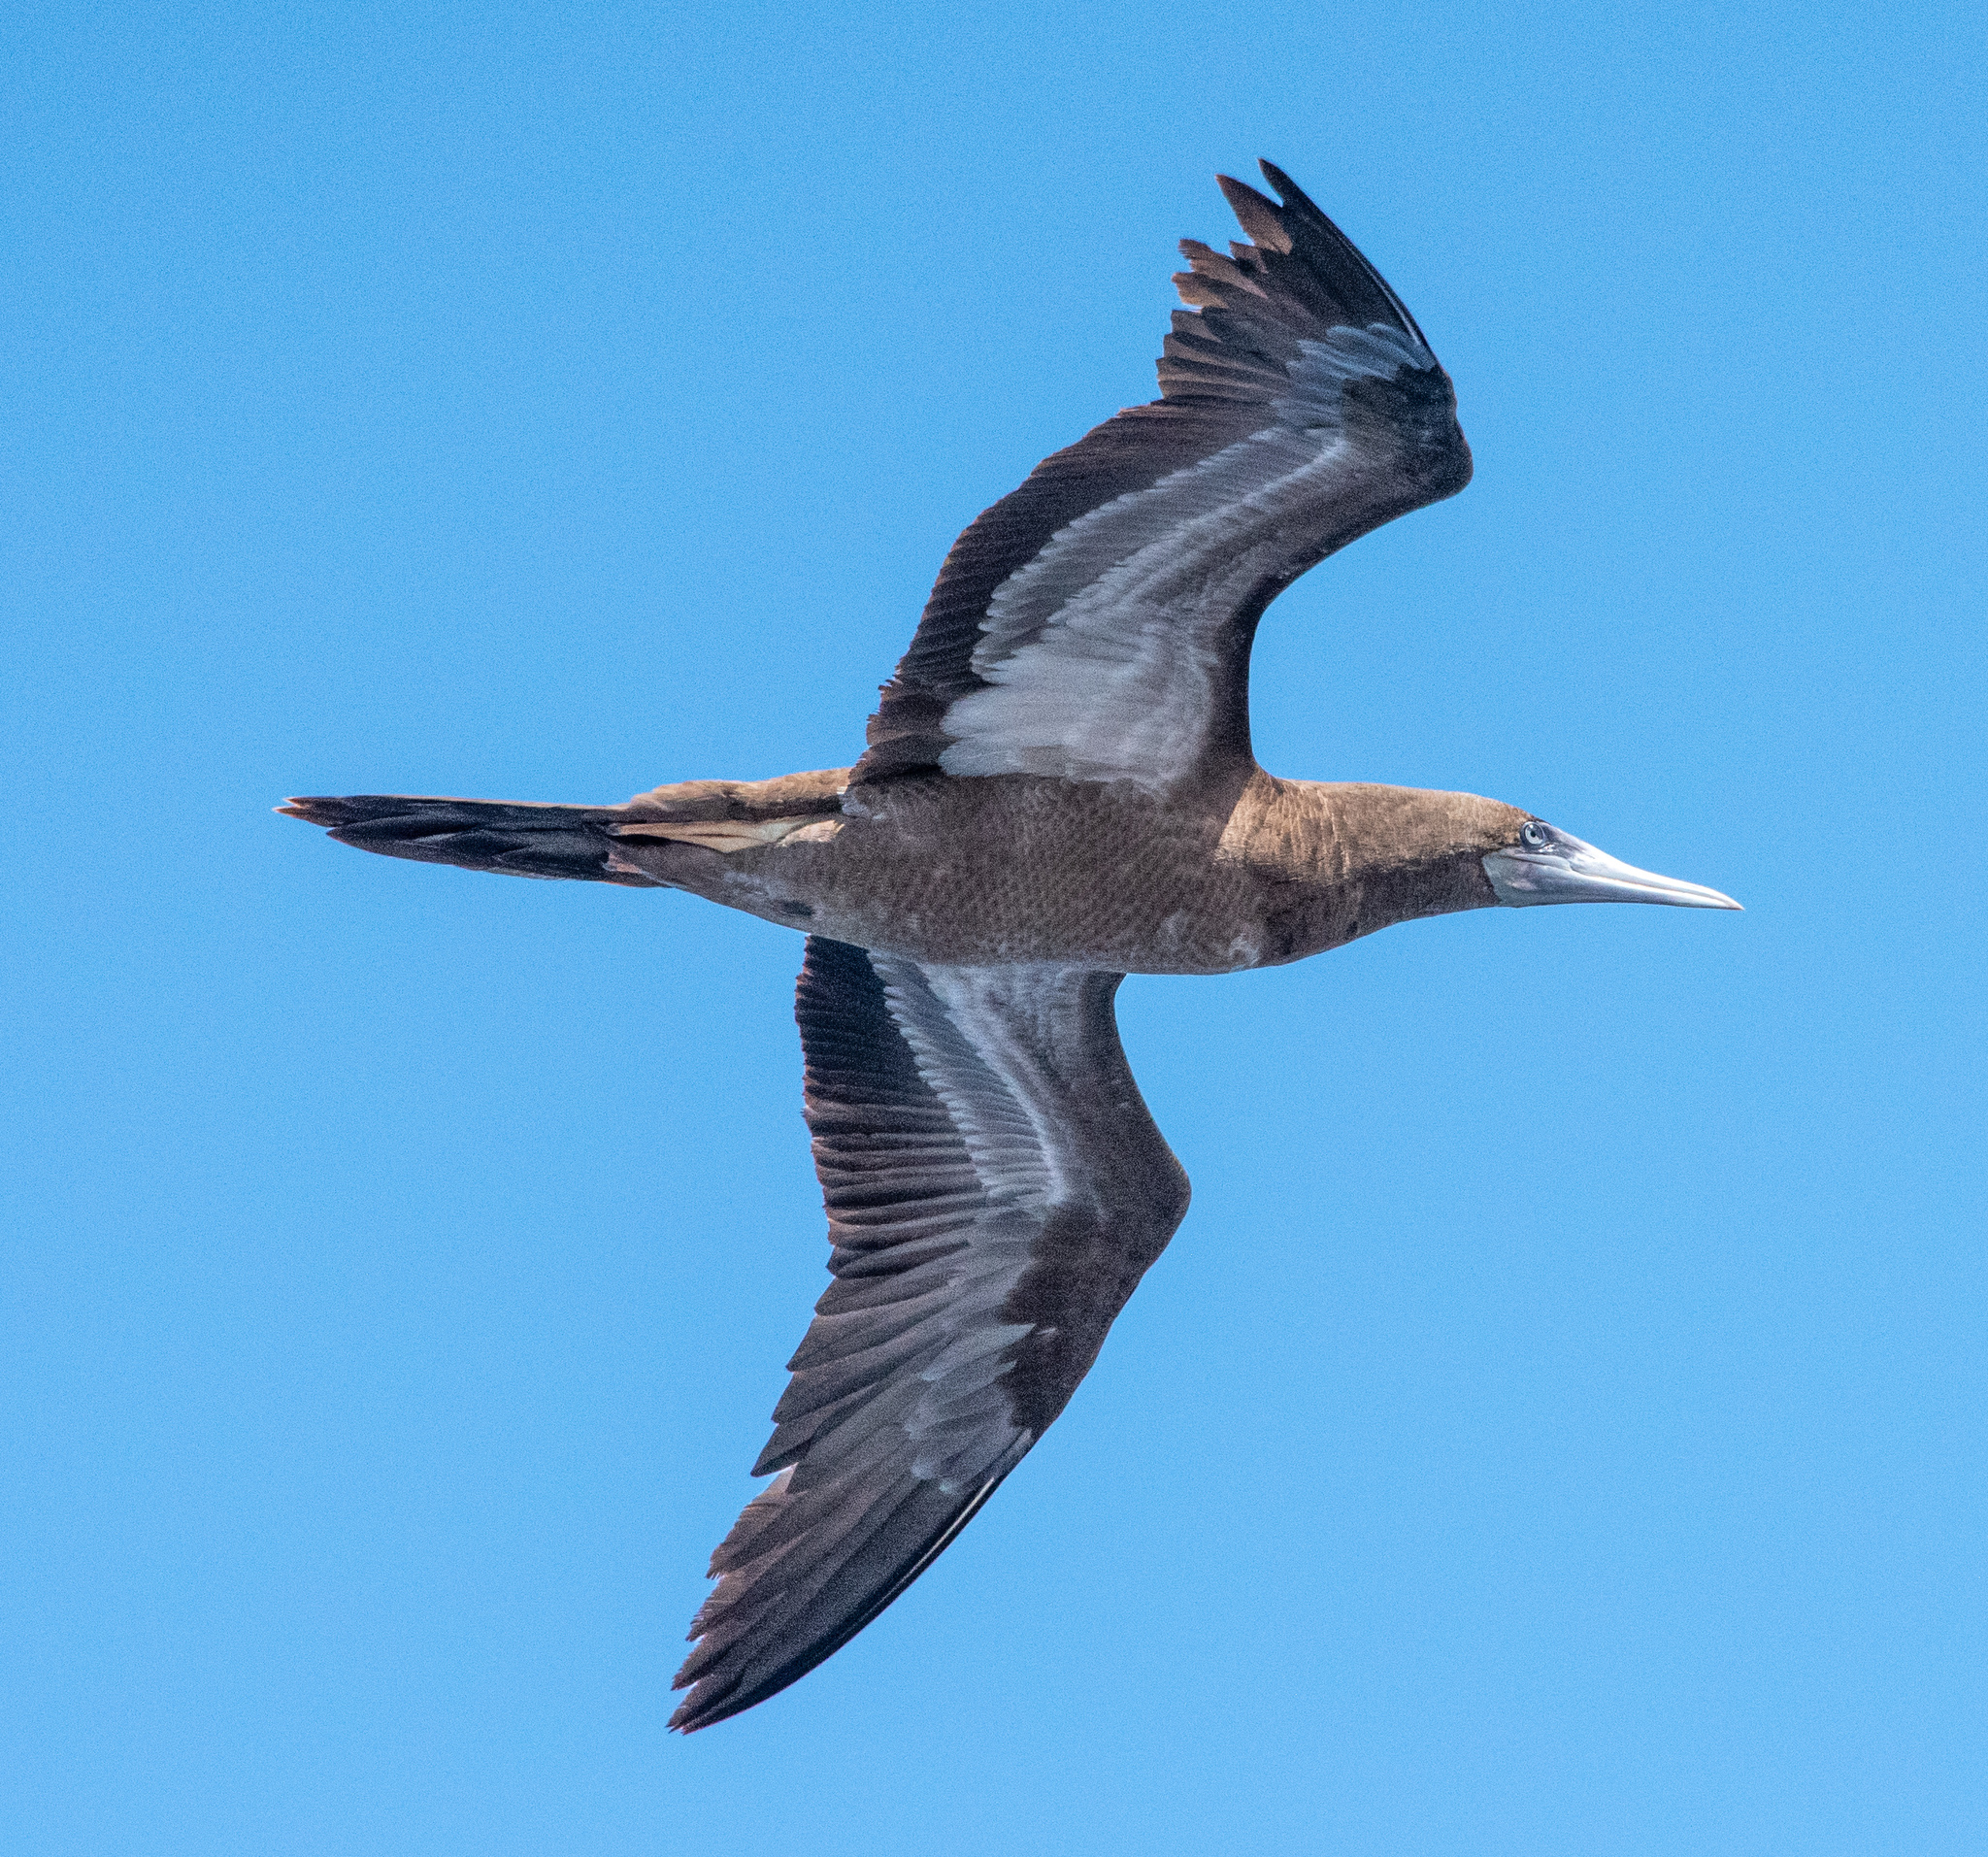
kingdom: Animalia
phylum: Chordata
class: Aves
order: Suliformes
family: Sulidae
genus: Sula
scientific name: Sula leucogaster
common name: Brown booby
